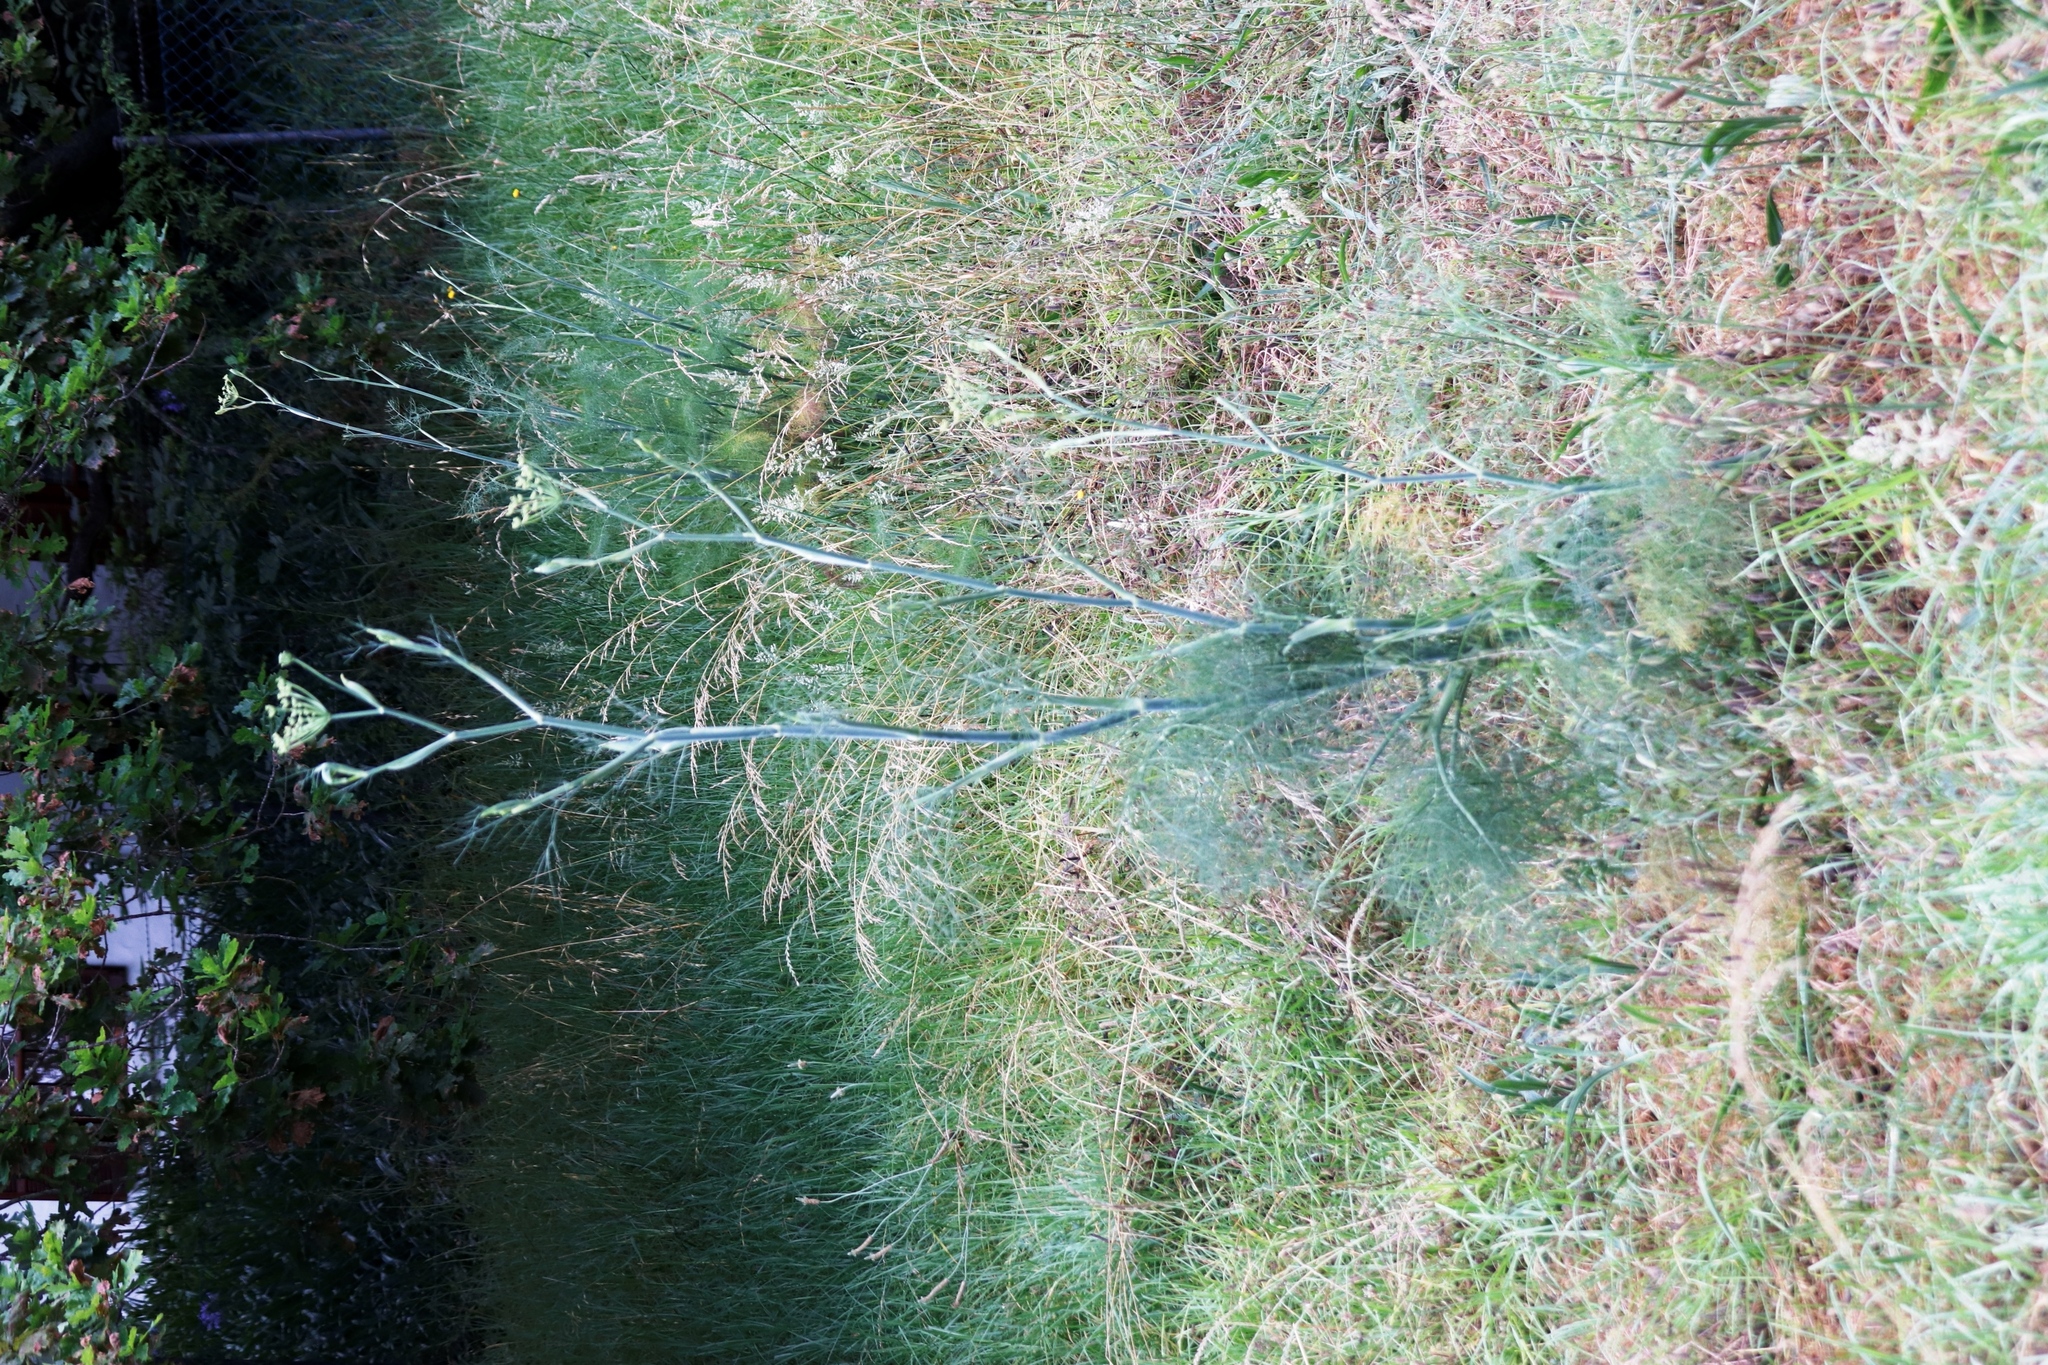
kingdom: Plantae
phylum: Tracheophyta
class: Magnoliopsida
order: Apiales
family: Apiaceae
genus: Foeniculum
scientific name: Foeniculum vulgare
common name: Fennel
